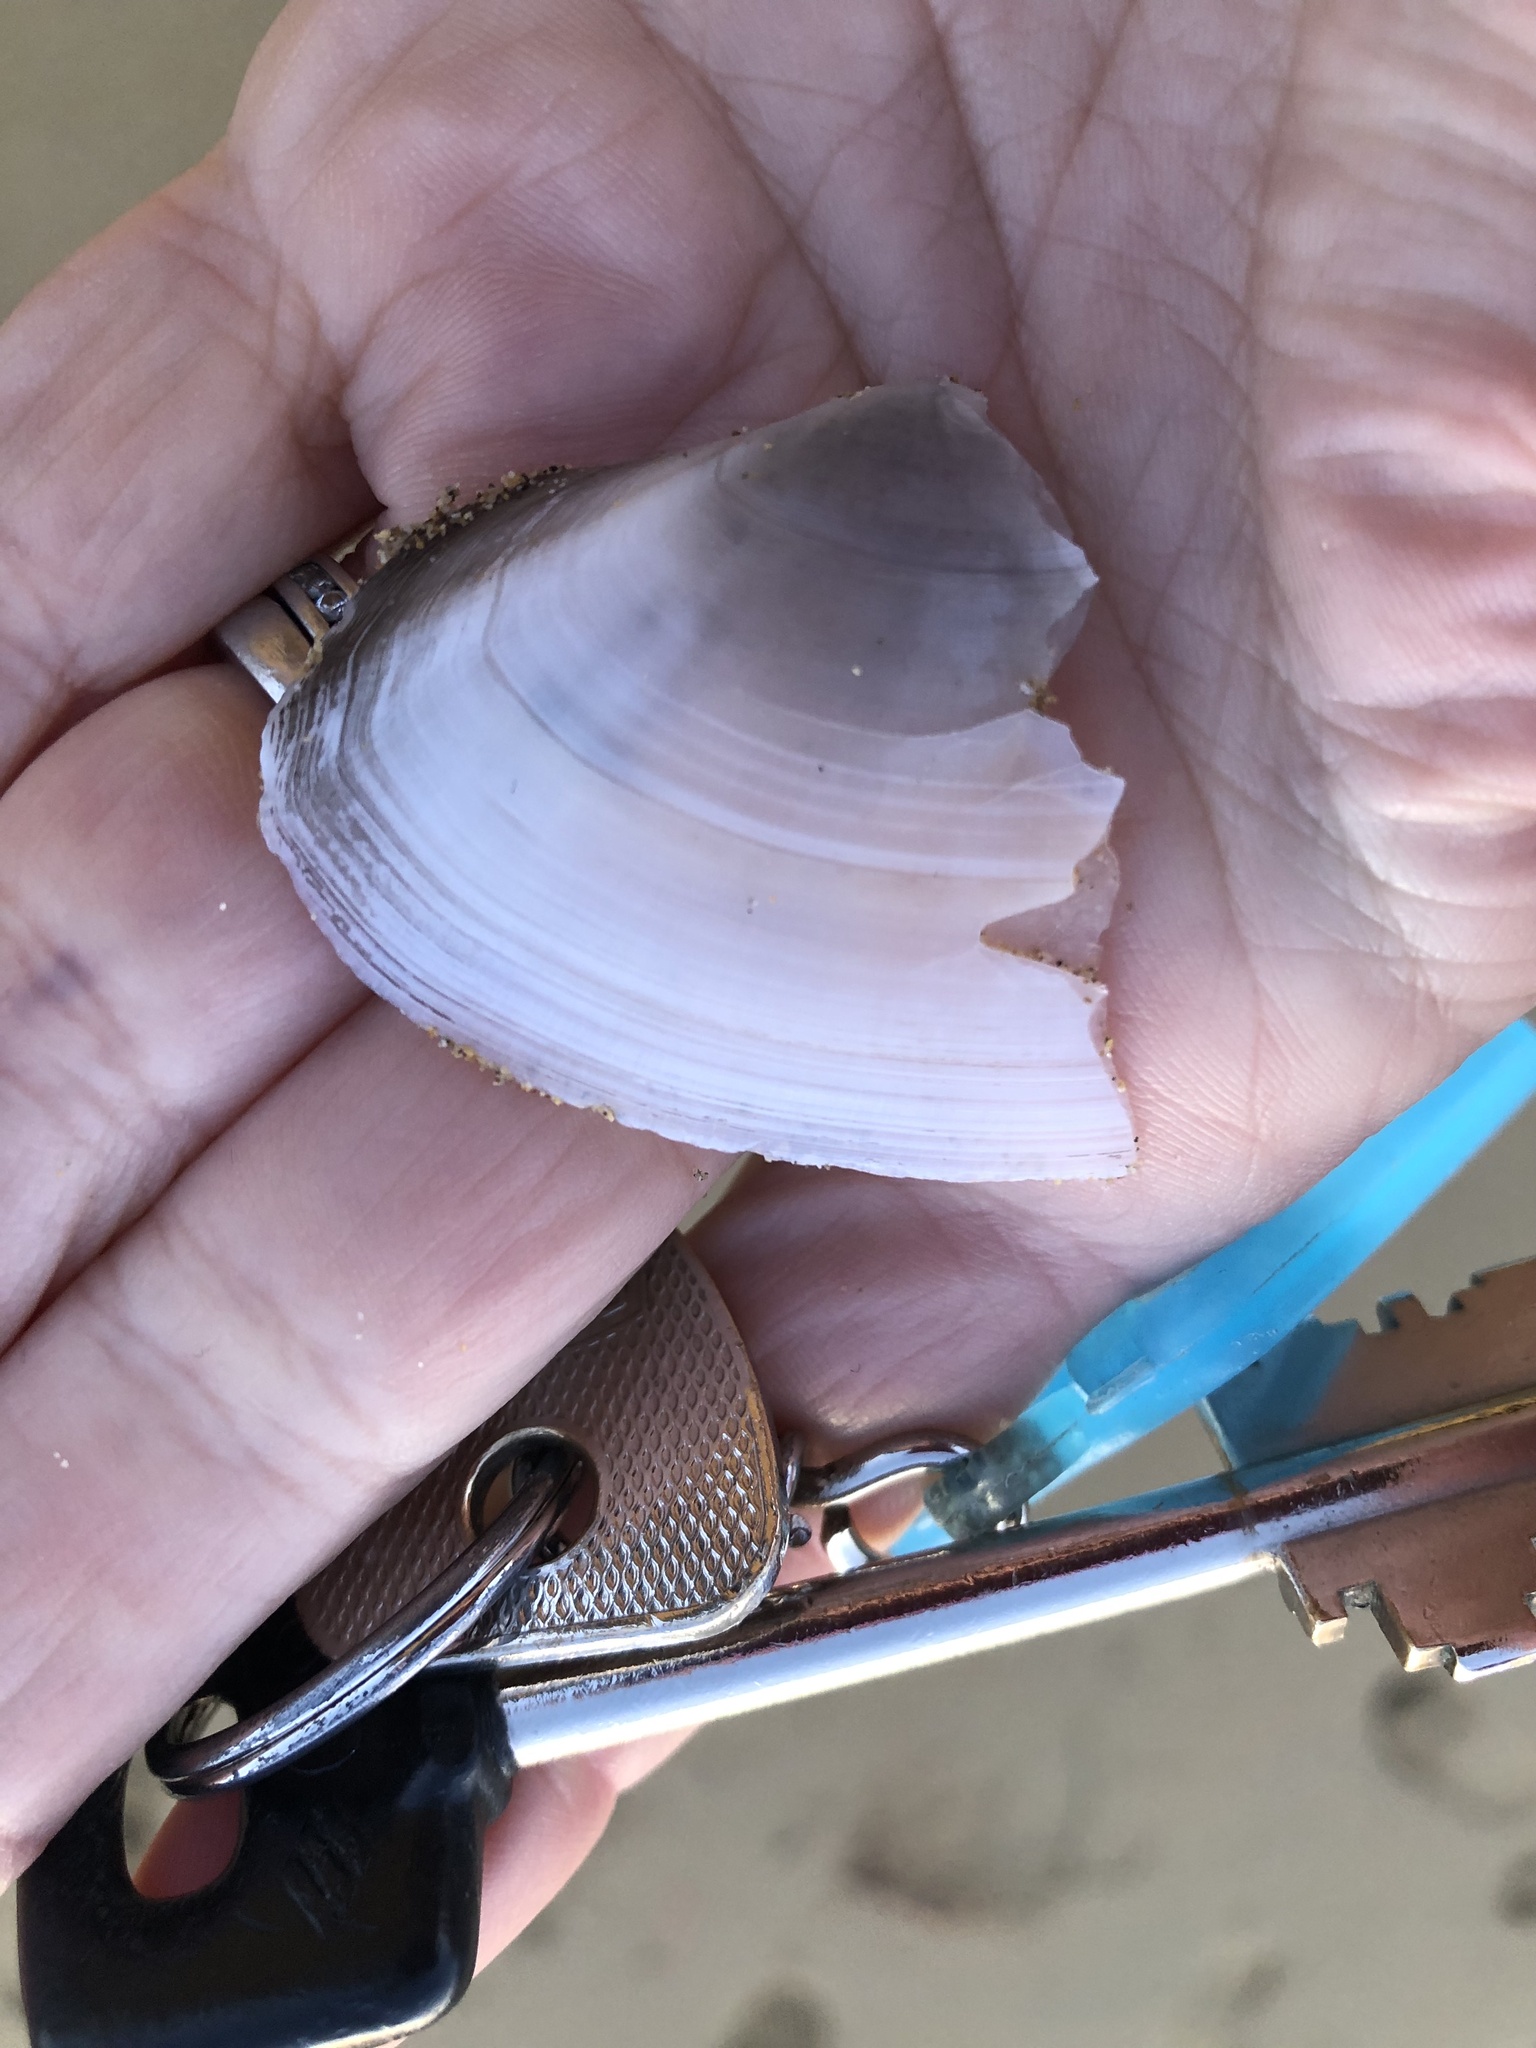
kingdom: Animalia
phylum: Mollusca
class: Bivalvia
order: Cardiida
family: Tellinidae
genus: Peronaea
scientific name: Peronaea planata
